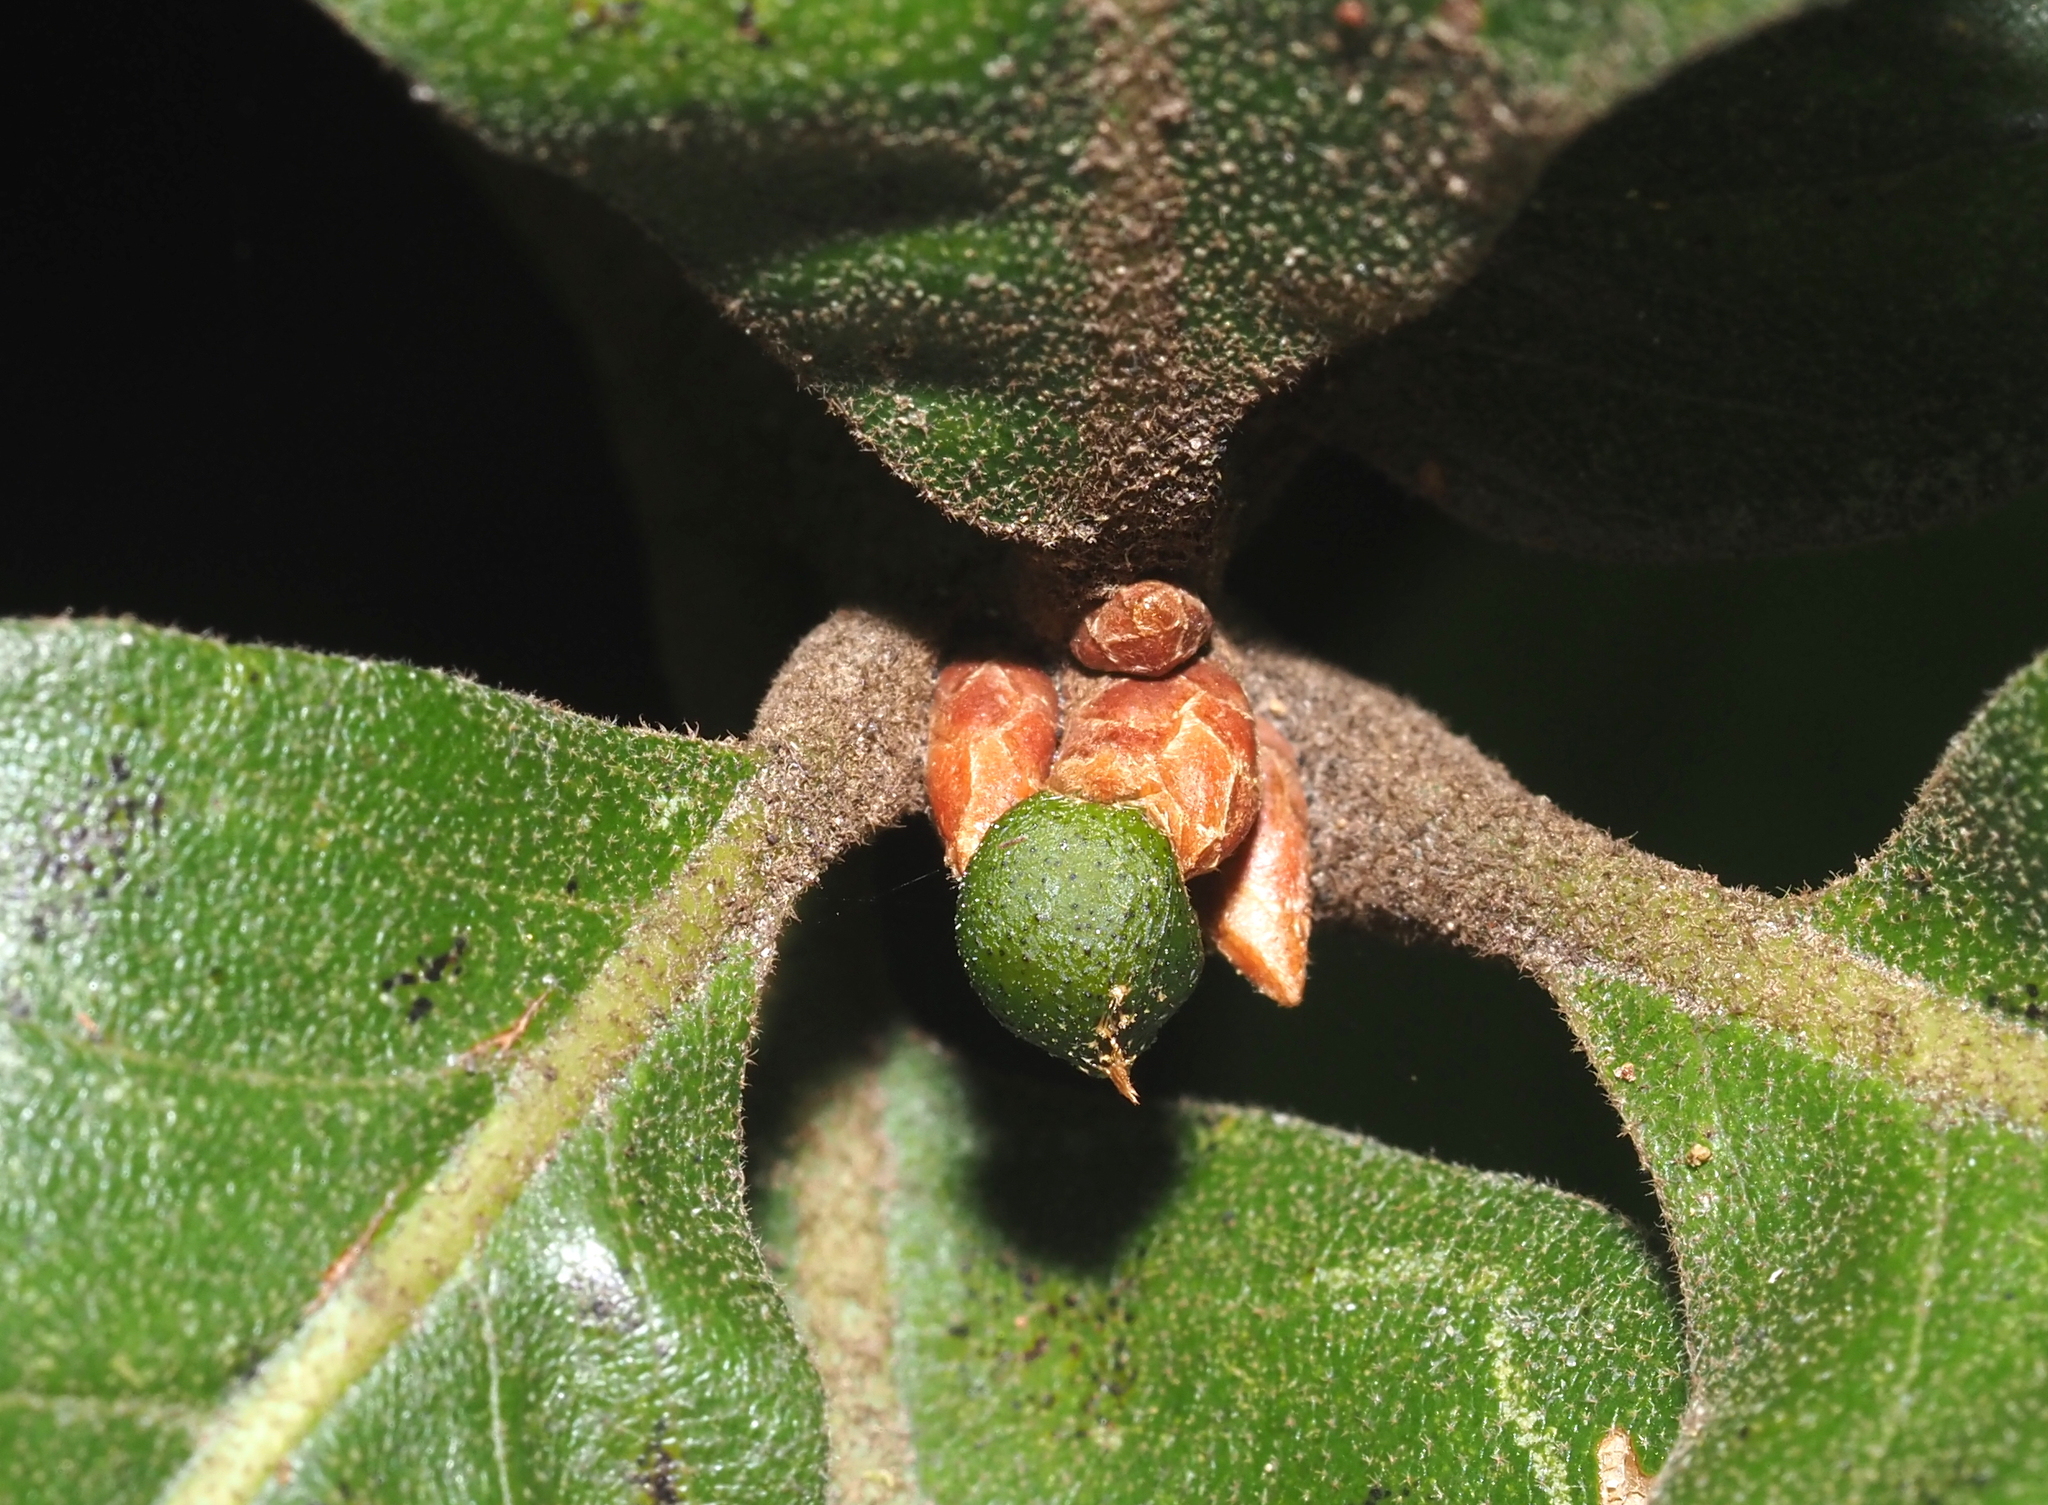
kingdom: Animalia
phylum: Arthropoda
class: Insecta
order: Hymenoptera
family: Cynipidae
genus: Amphibolips
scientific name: Amphibolips
